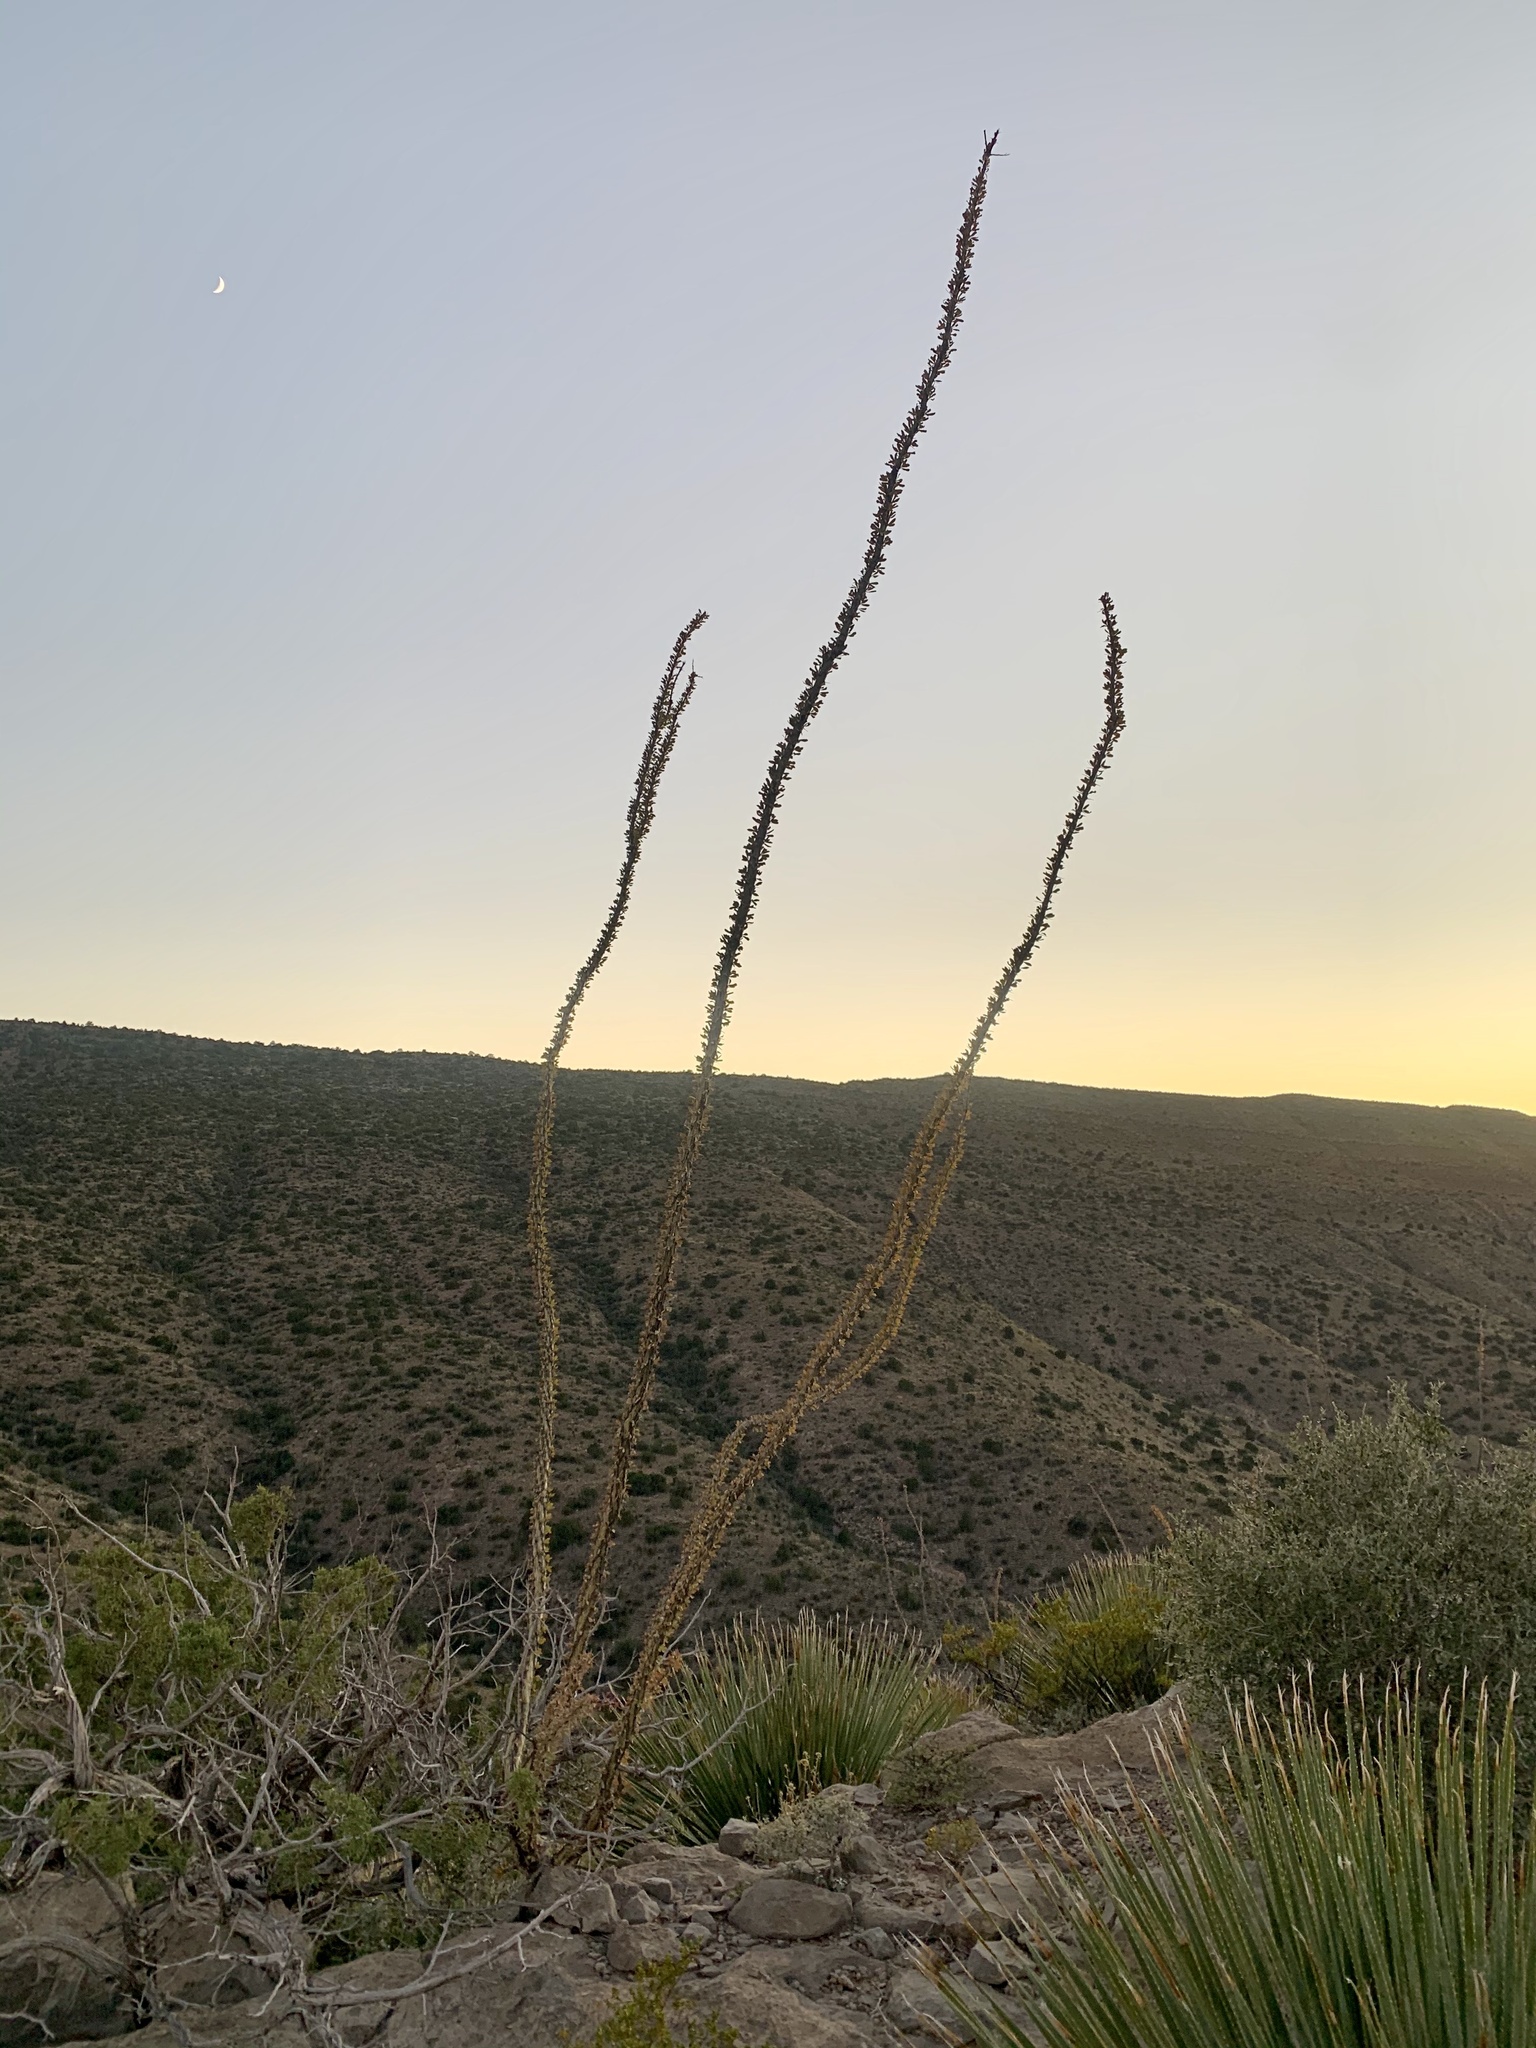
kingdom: Plantae
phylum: Tracheophyta
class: Magnoliopsida
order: Ericales
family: Fouquieriaceae
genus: Fouquieria
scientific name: Fouquieria splendens
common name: Vine-cactus
